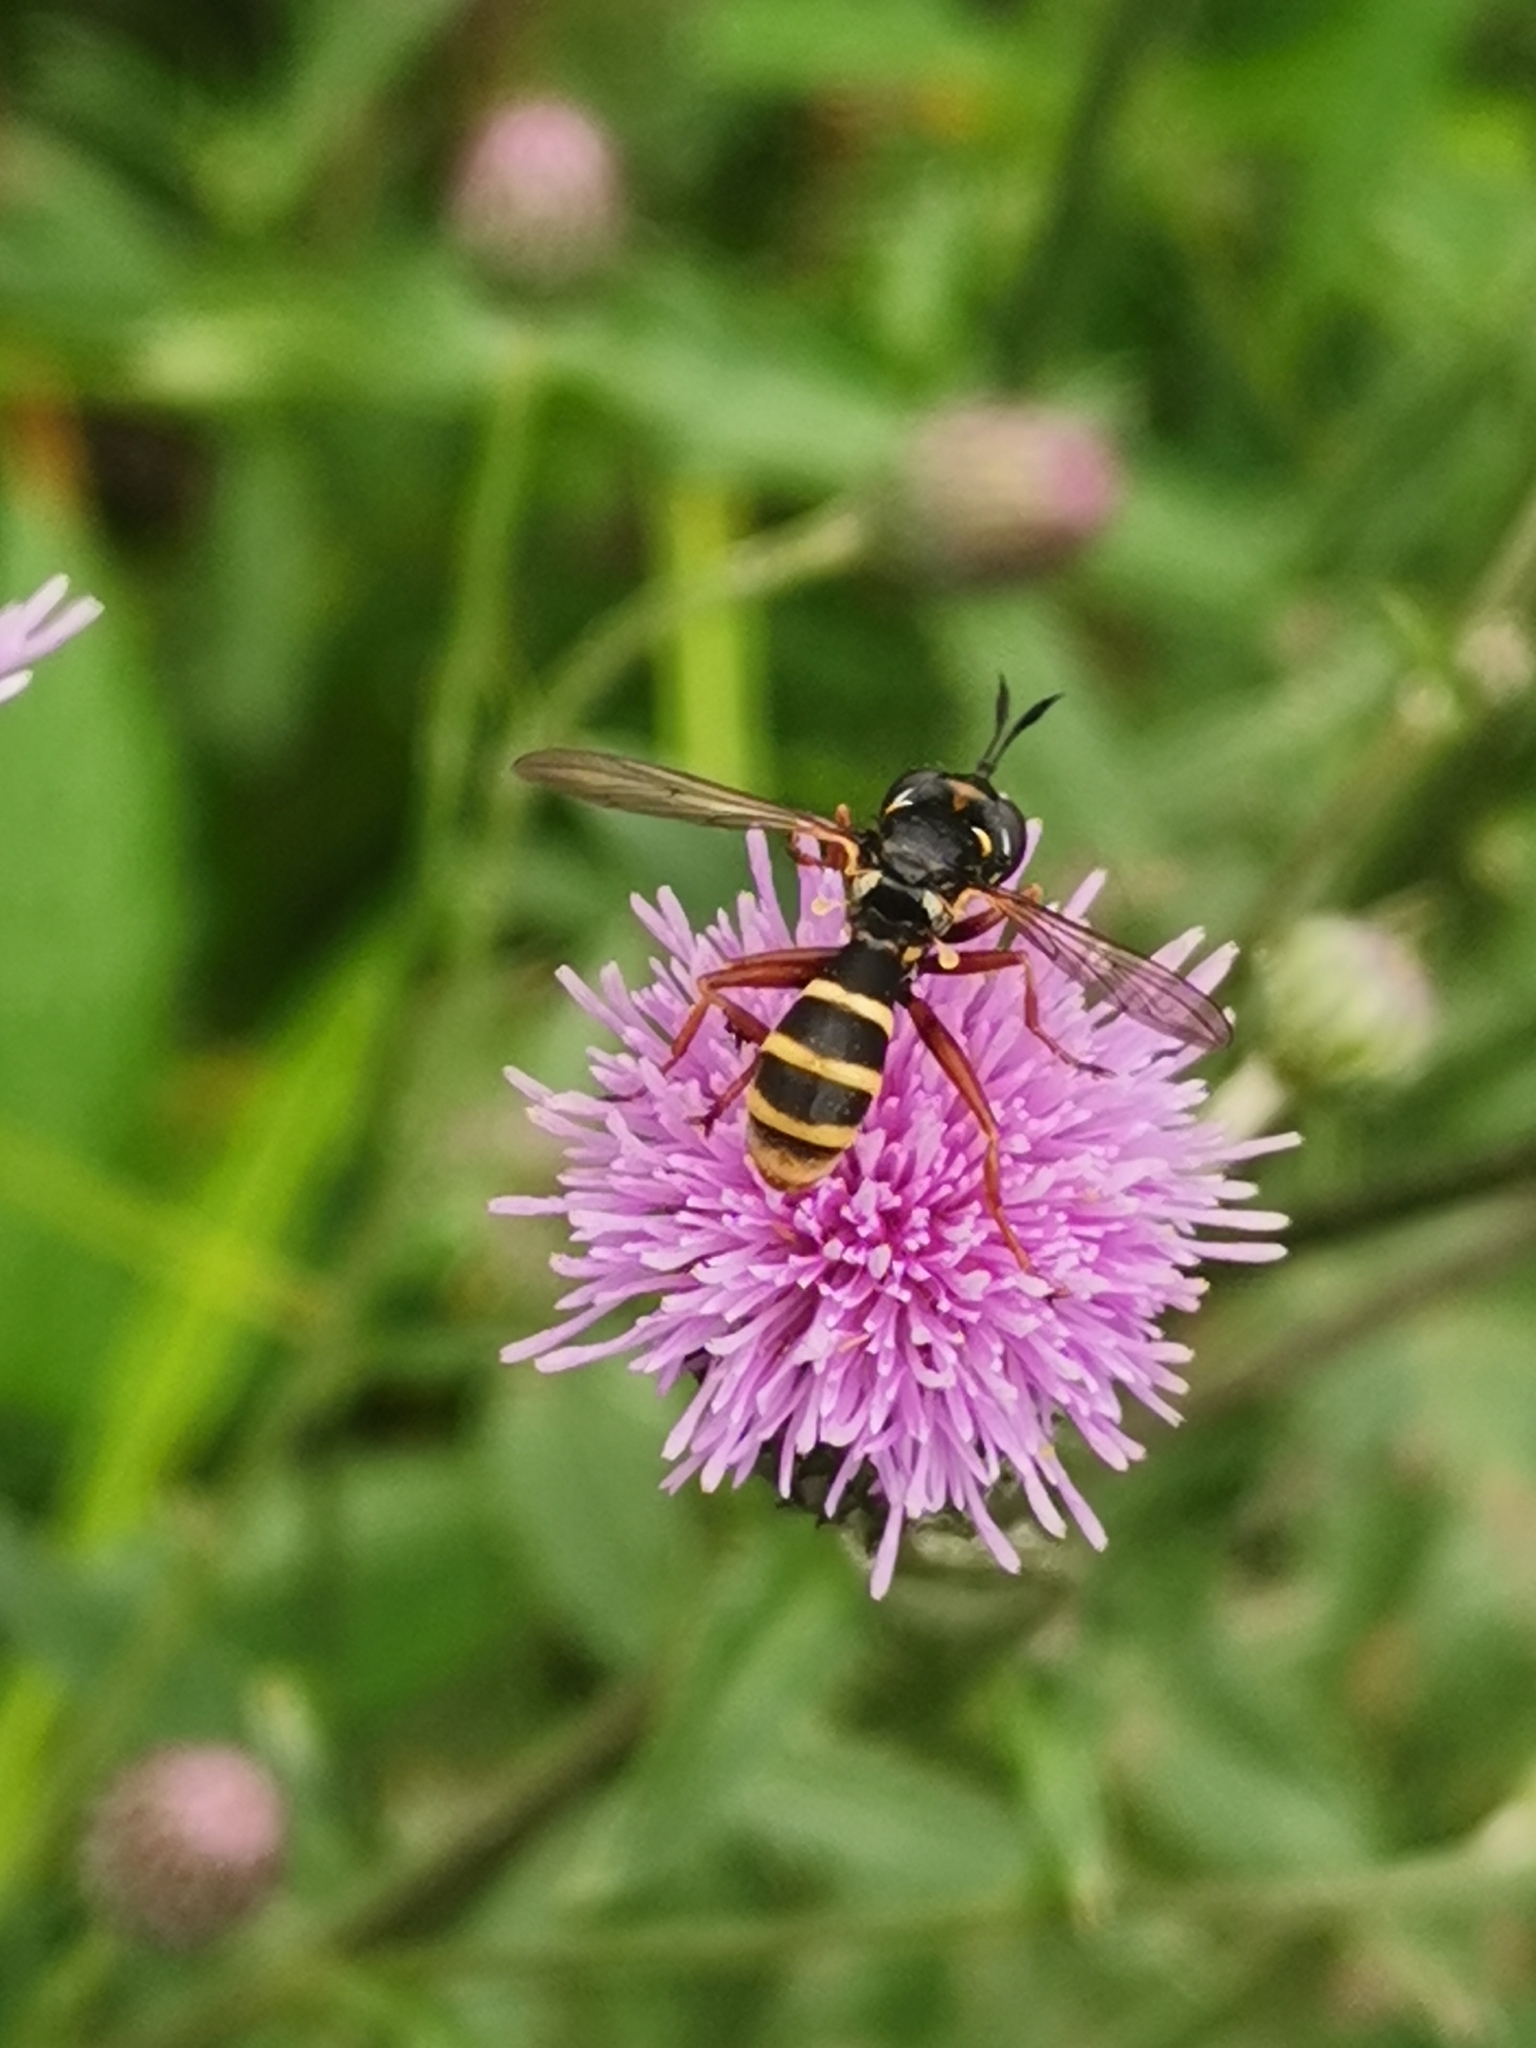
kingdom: Animalia
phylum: Arthropoda
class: Insecta
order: Diptera
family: Conopidae
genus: Conops
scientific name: Conops quadrifasciatus
